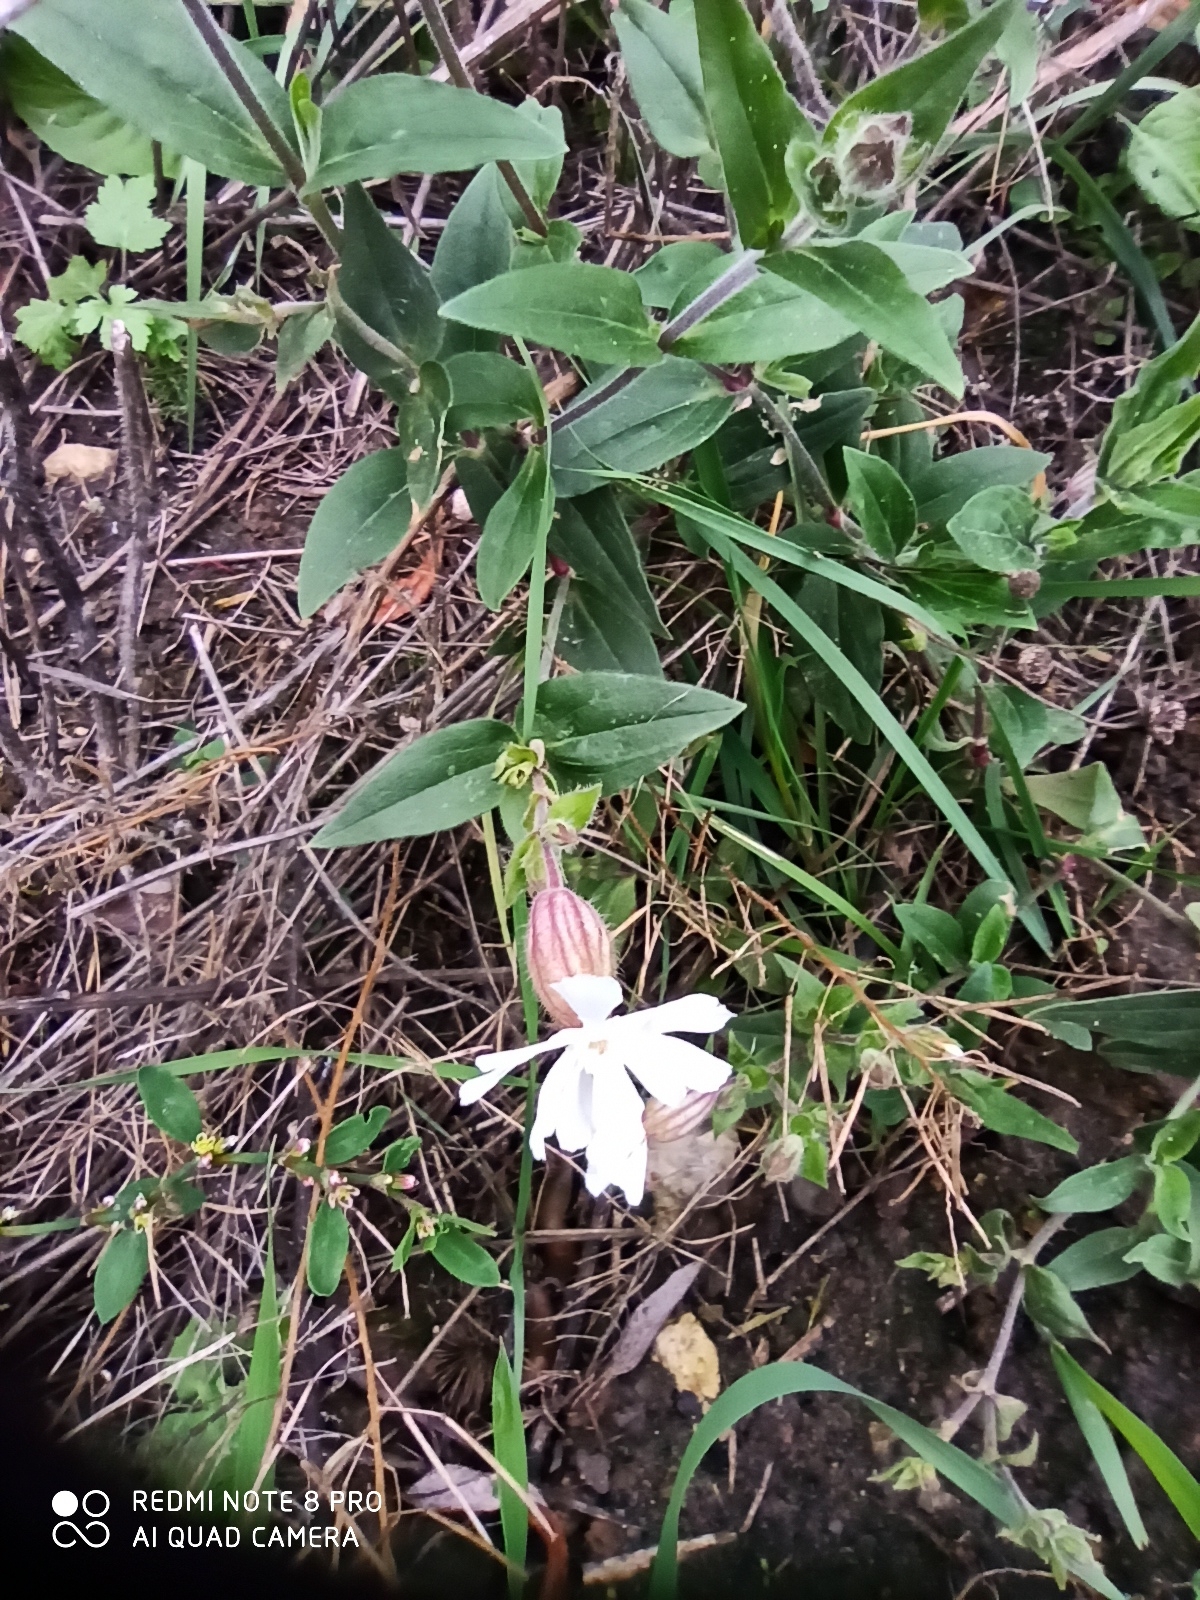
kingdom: Plantae
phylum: Tracheophyta
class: Magnoliopsida
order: Caryophyllales
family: Caryophyllaceae
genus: Silene
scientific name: Silene latifolia
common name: White campion
